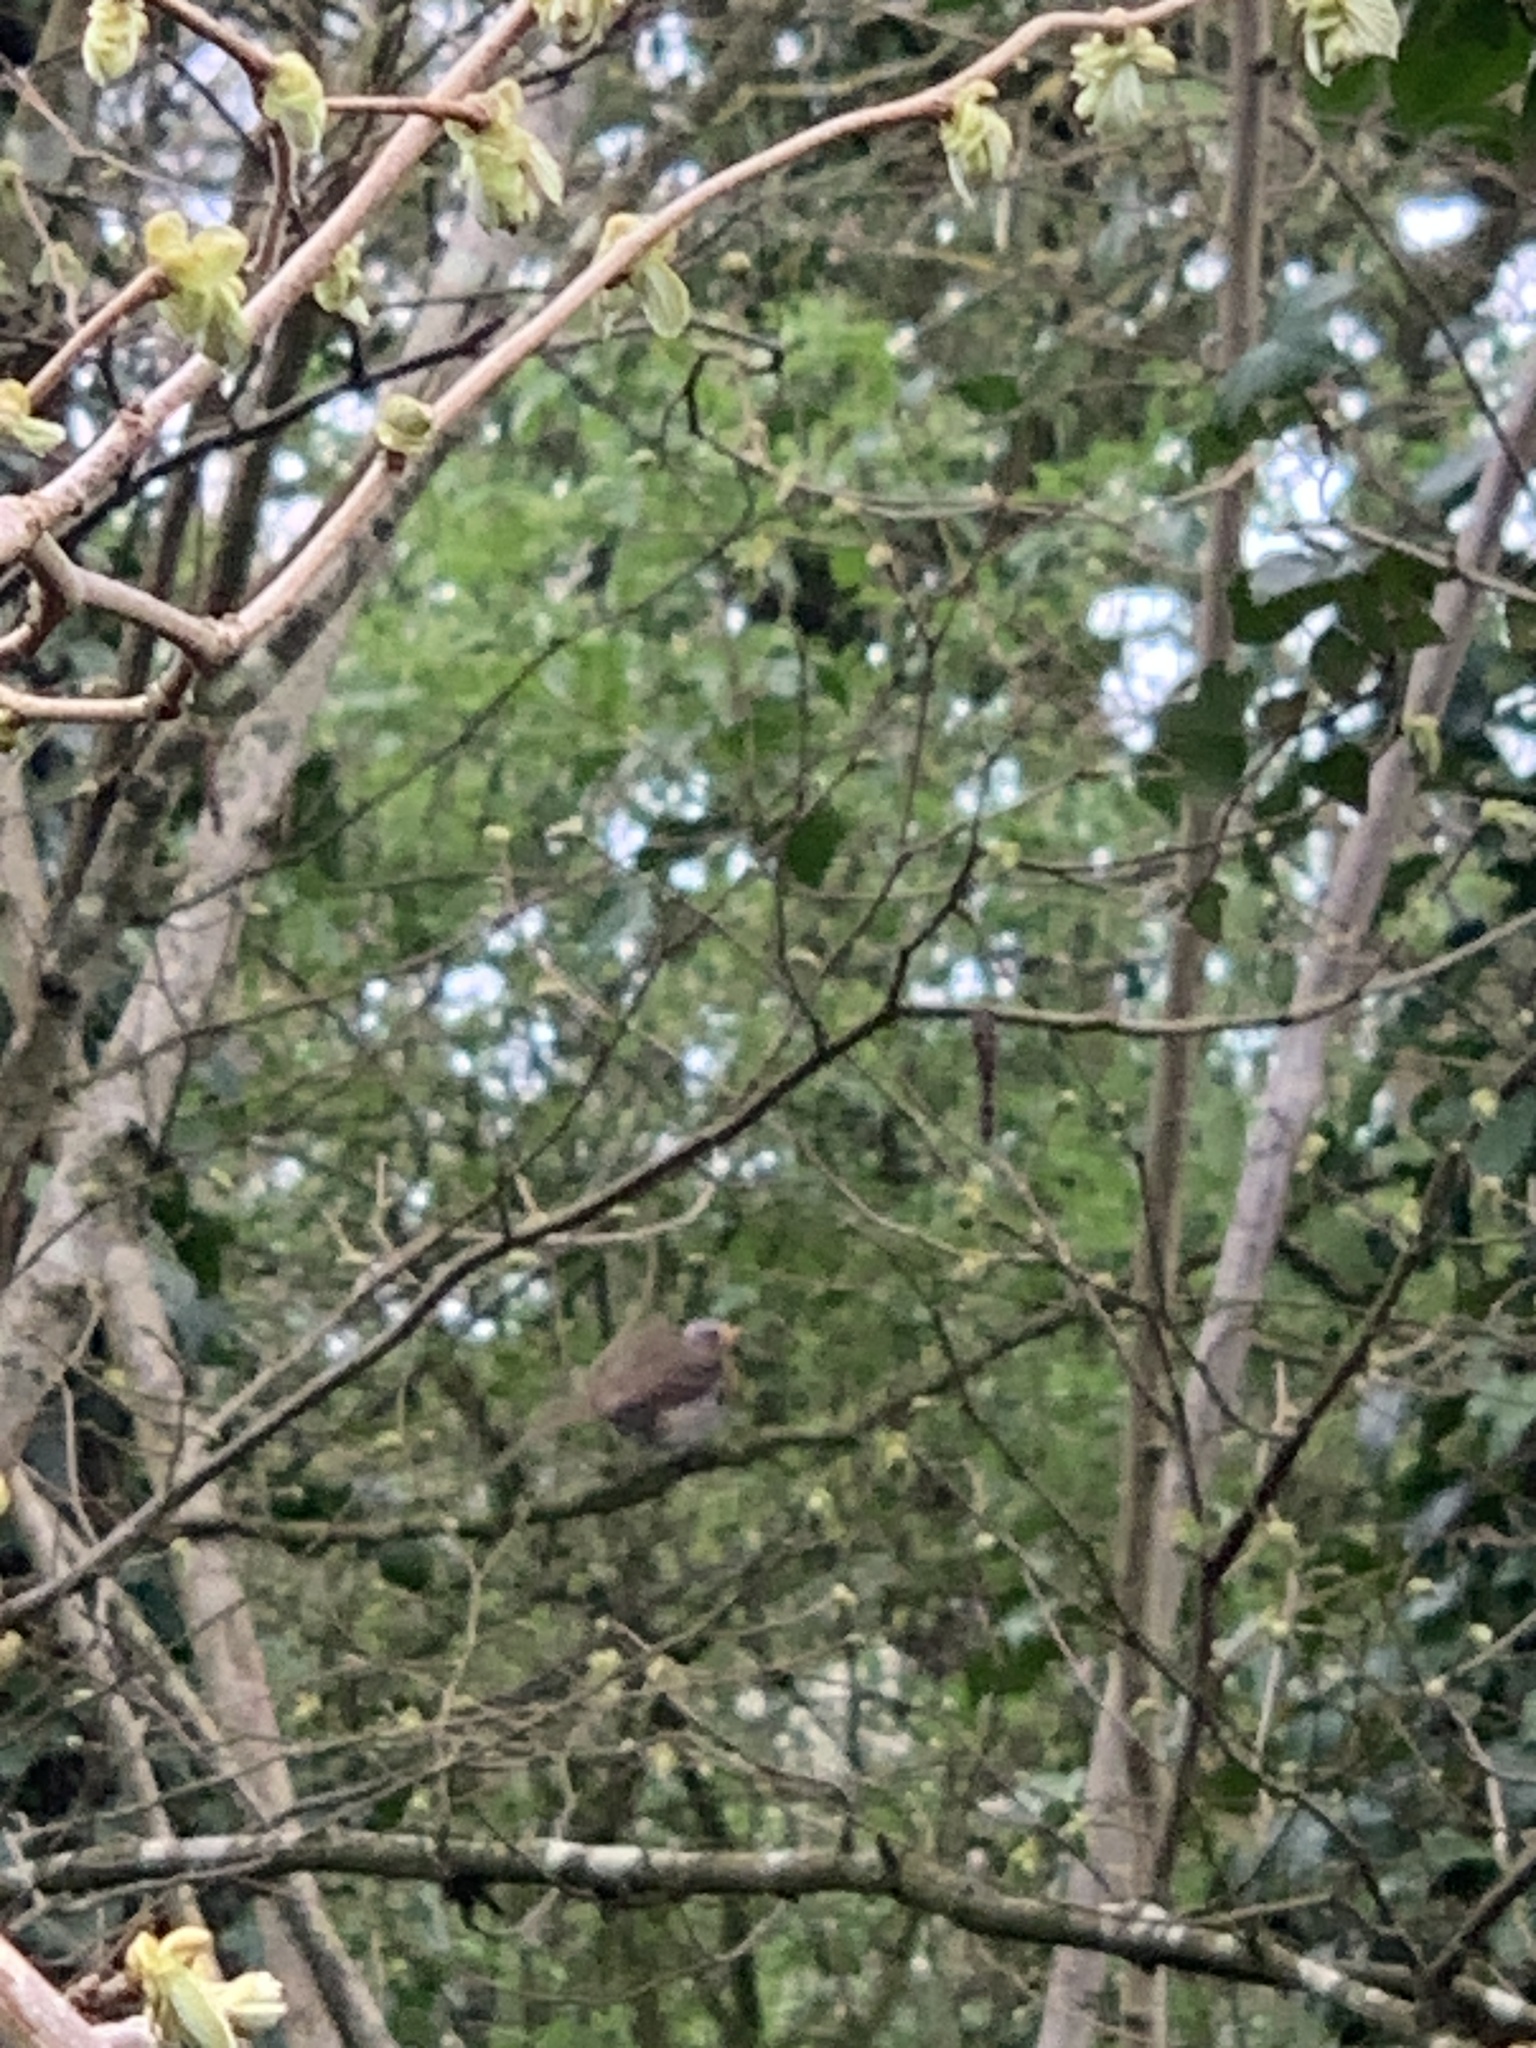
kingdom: Animalia
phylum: Chordata
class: Aves
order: Passeriformes
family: Muscicapidae
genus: Erithacus
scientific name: Erithacus rubecula
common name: European robin
